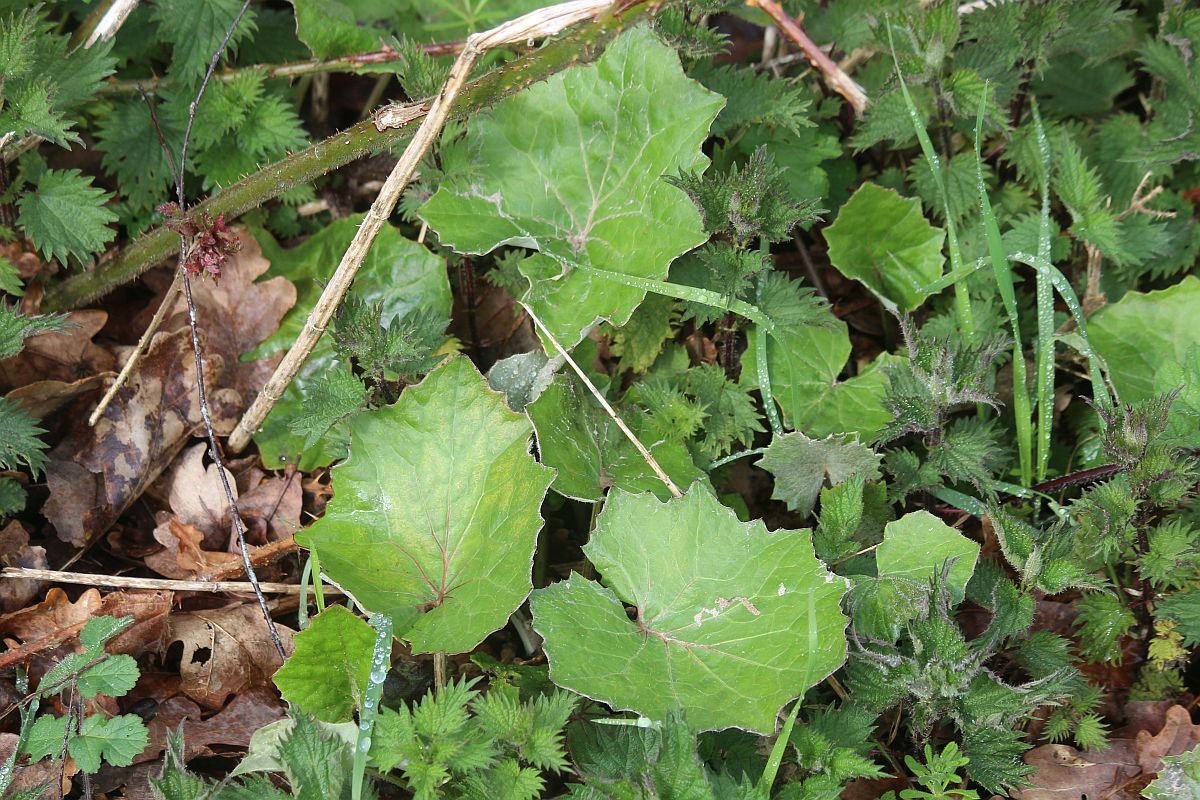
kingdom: Plantae
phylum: Tracheophyta
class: Magnoliopsida
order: Asterales
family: Asteraceae
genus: Tussilago
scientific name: Tussilago farfara
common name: Coltsfoot
